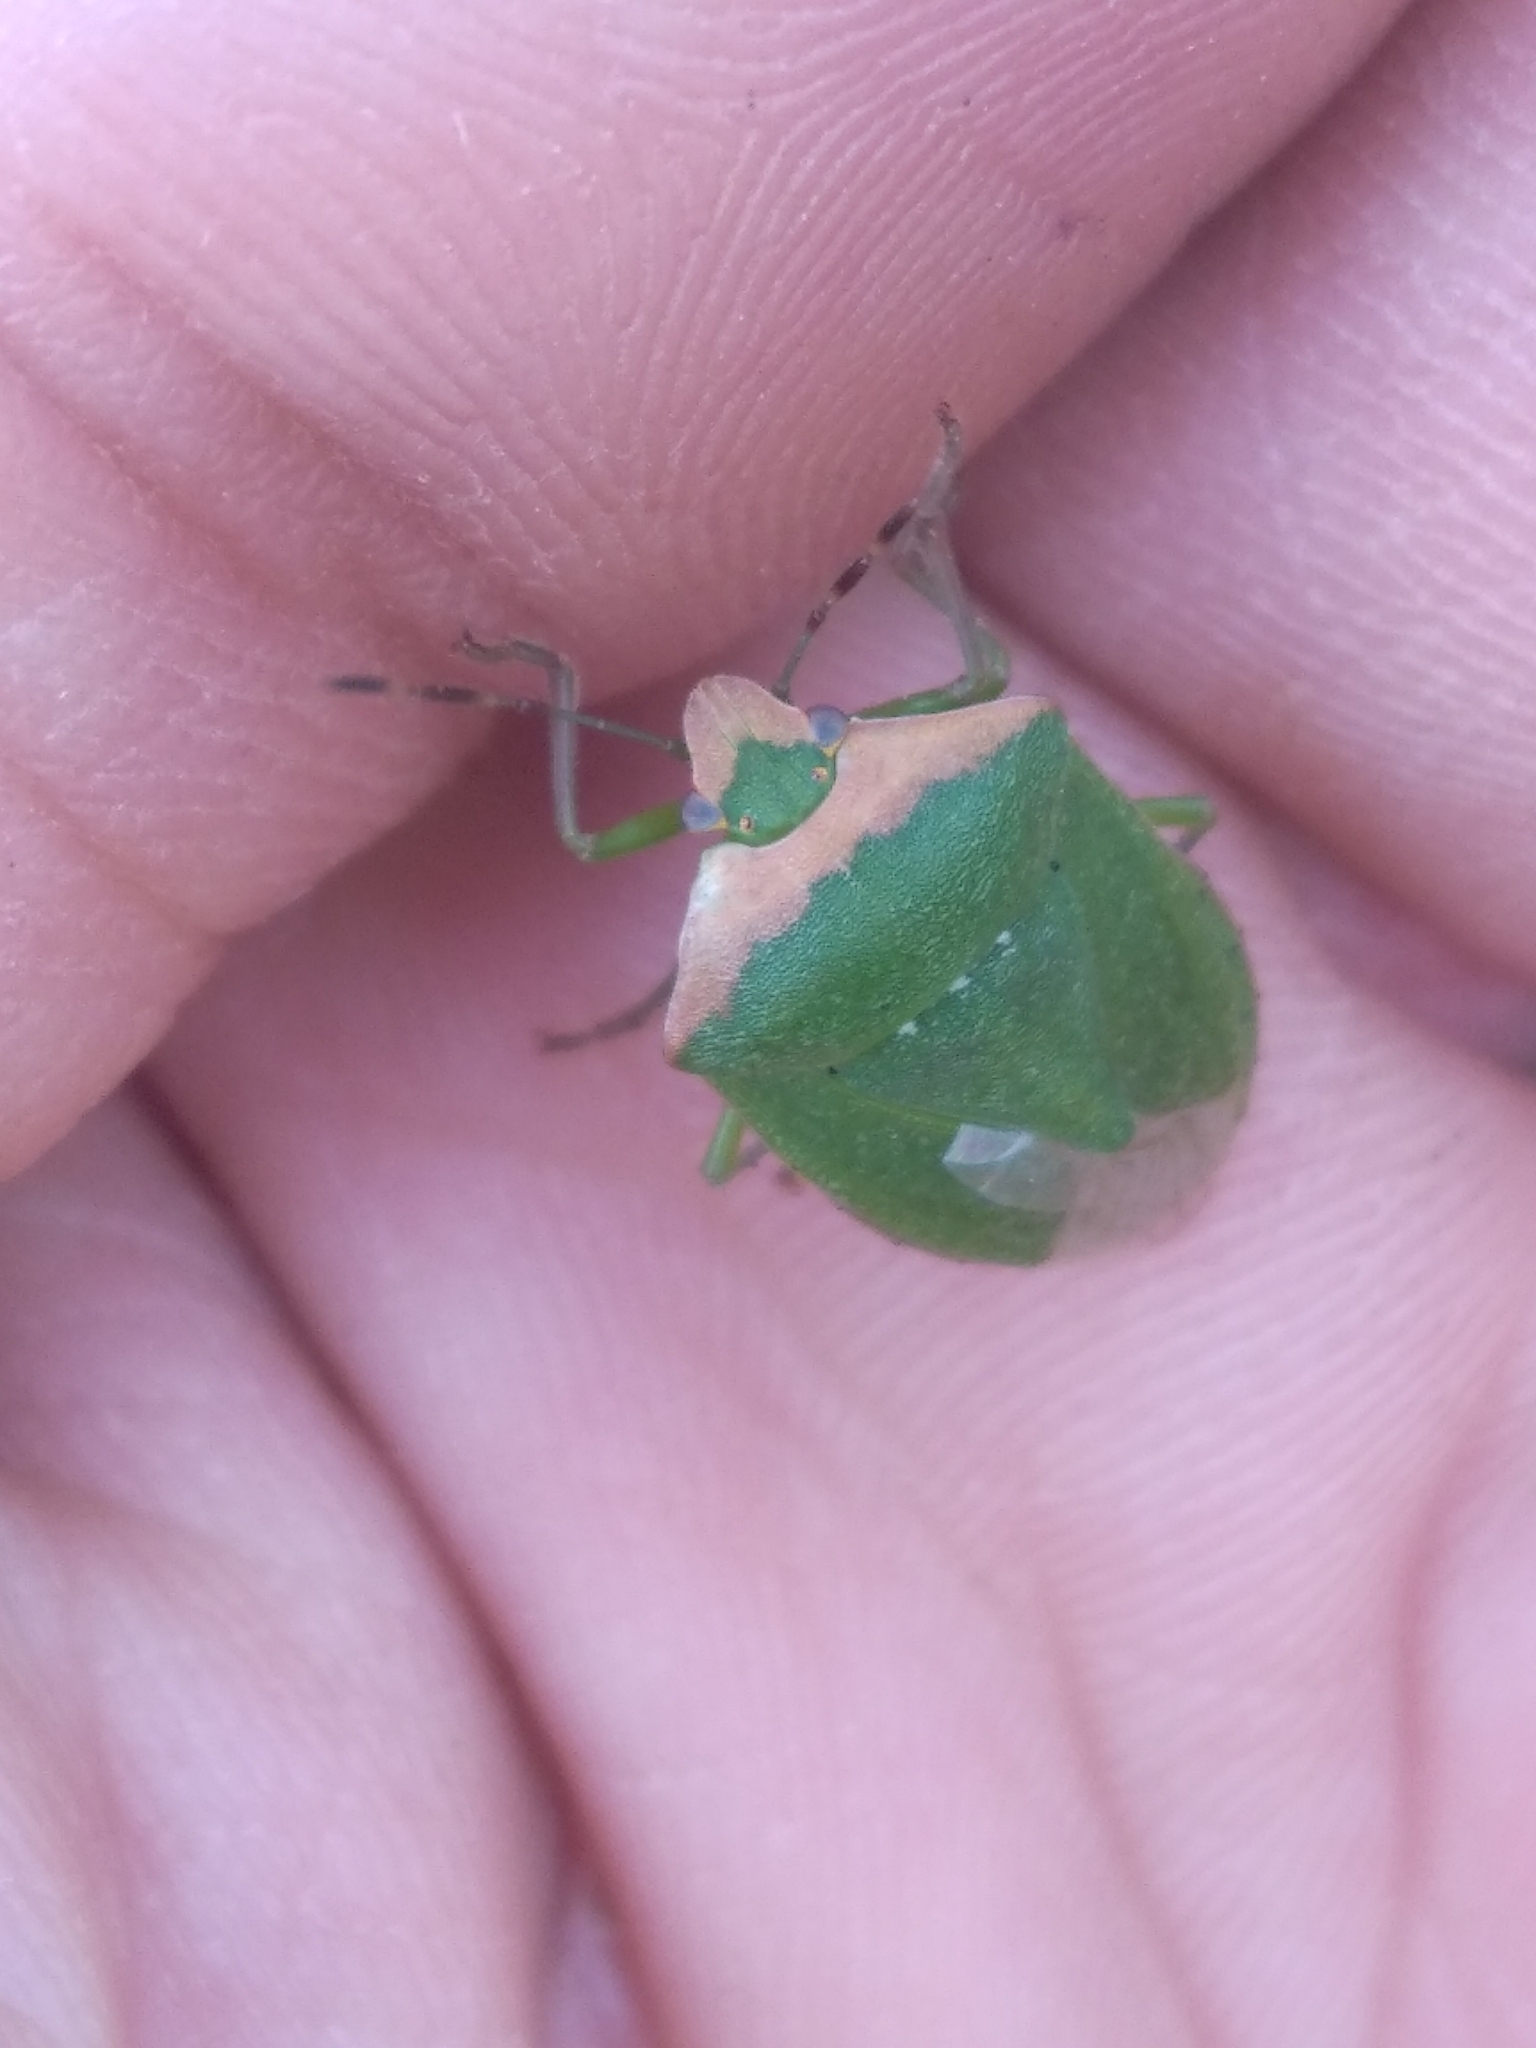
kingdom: Animalia
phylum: Arthropoda
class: Insecta
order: Hemiptera
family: Pentatomidae
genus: Nezara
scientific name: Nezara viridula
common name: Southern green stink bug
